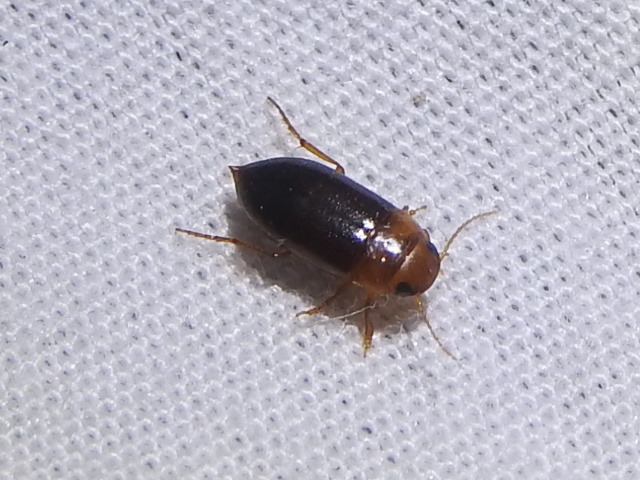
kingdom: Animalia
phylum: Arthropoda
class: Insecta
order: Coleoptera
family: Dytiscidae
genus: Celina
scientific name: Celina
